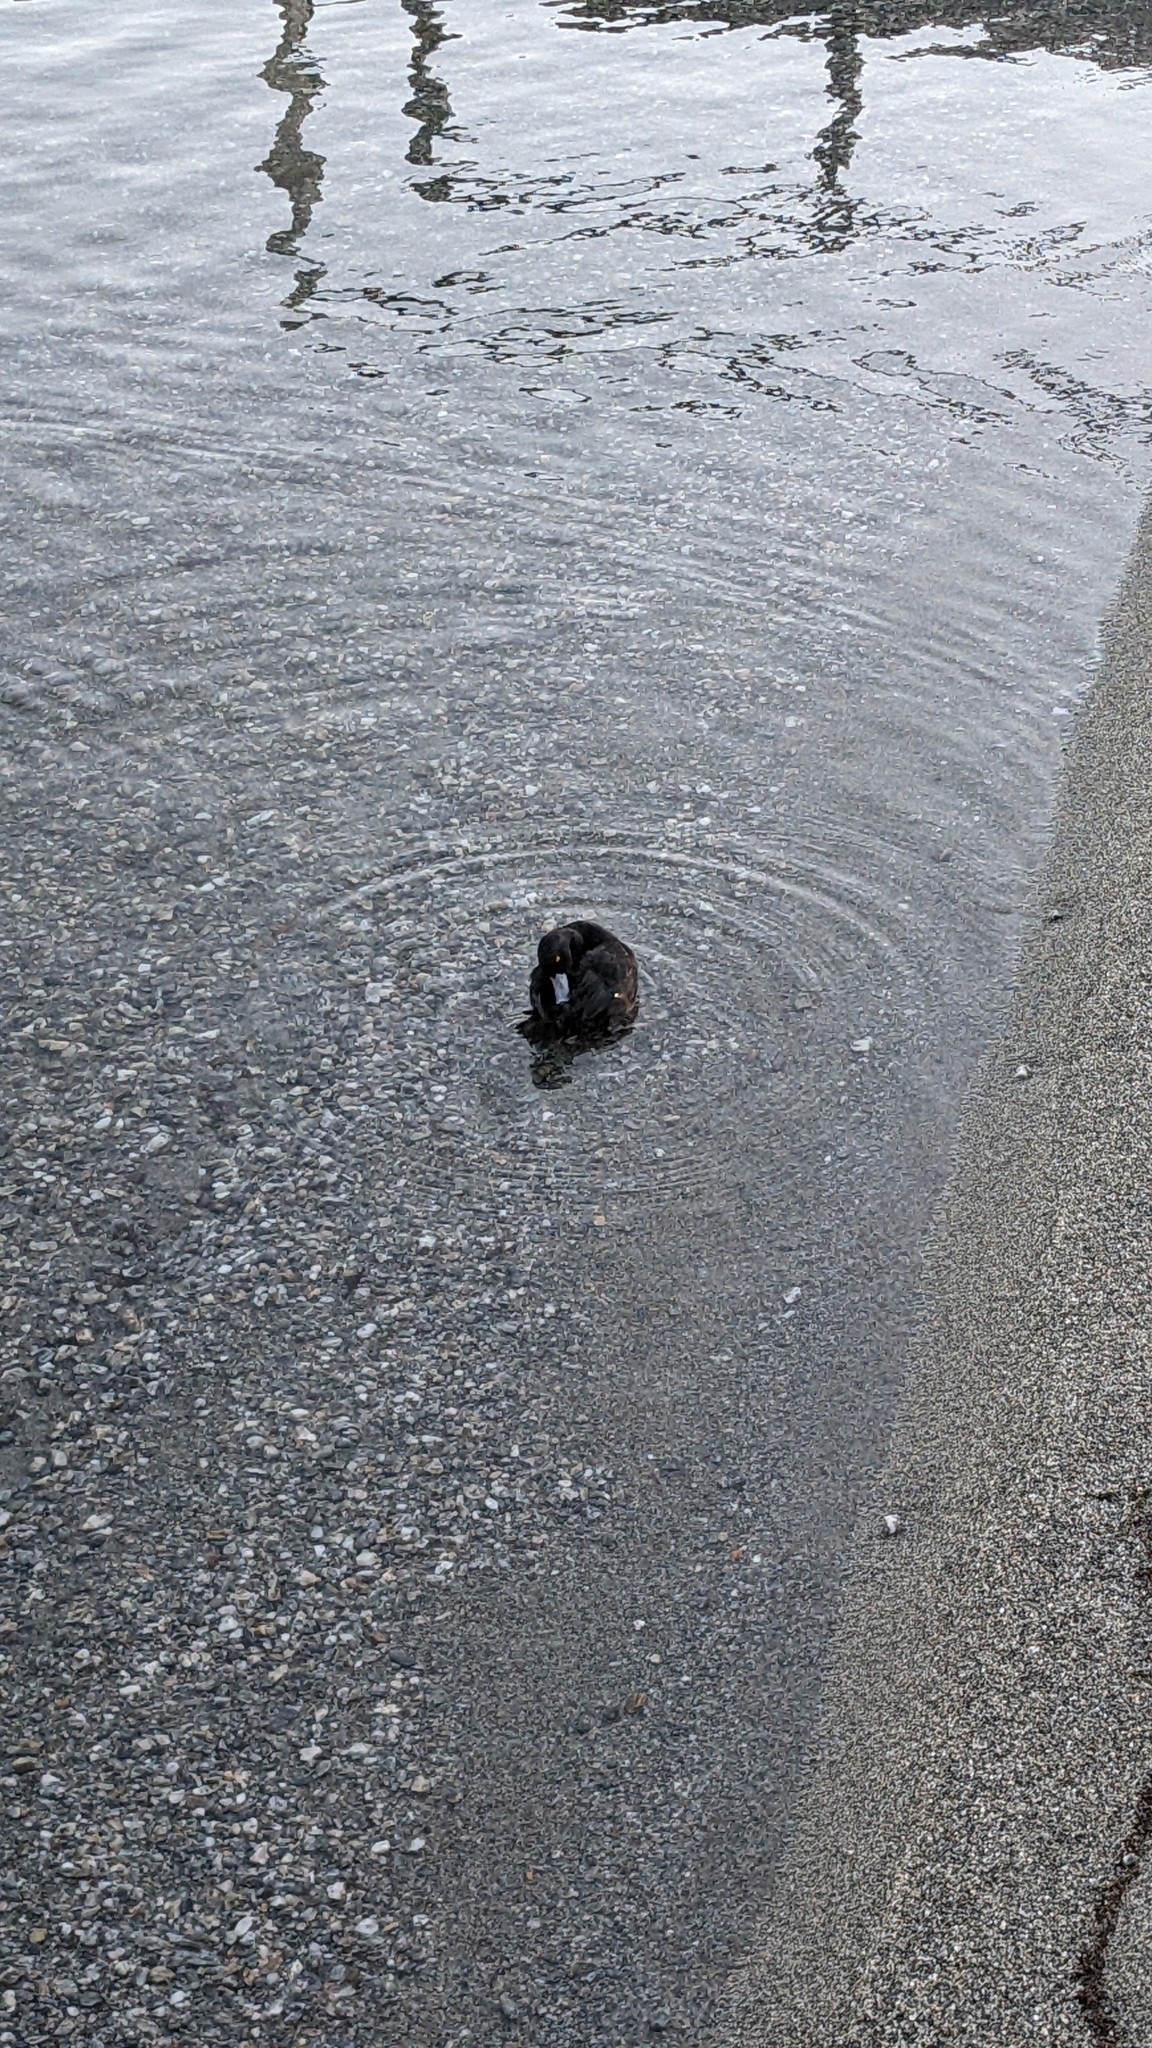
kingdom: Animalia
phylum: Chordata
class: Aves
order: Anseriformes
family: Anatidae
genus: Aythya
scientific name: Aythya novaeseelandiae
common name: New zealand scaup
